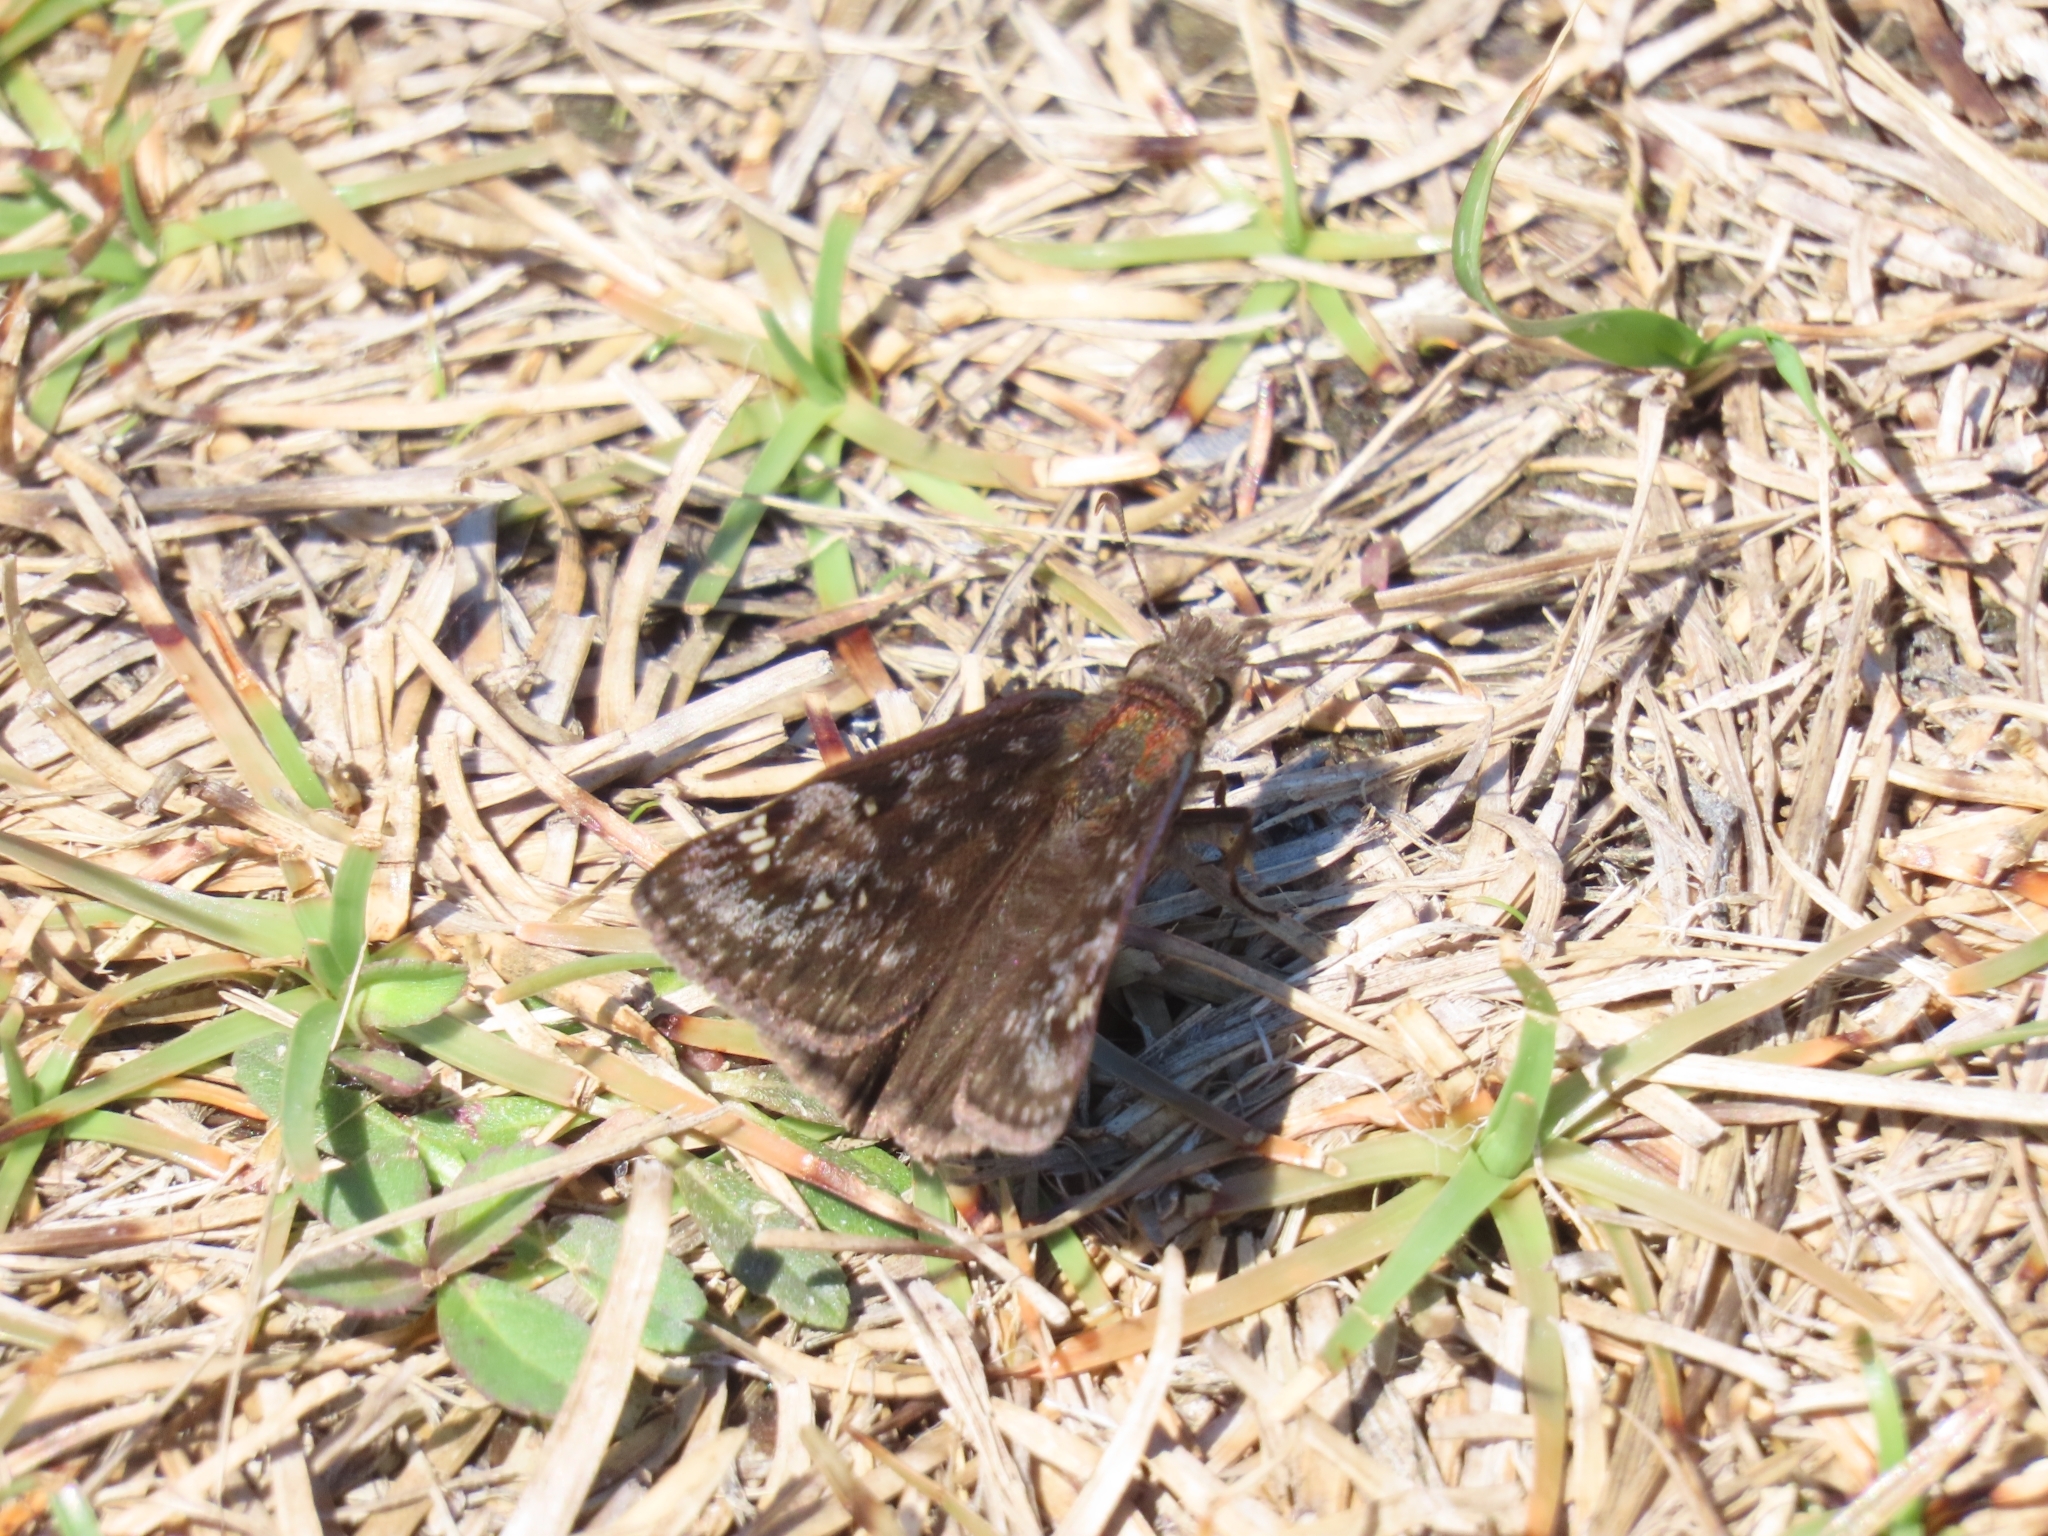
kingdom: Animalia
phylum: Arthropoda
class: Insecta
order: Lepidoptera
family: Hesperiidae
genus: Erynnis
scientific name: Erynnis juvenalis
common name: Juvenal's duskywing
